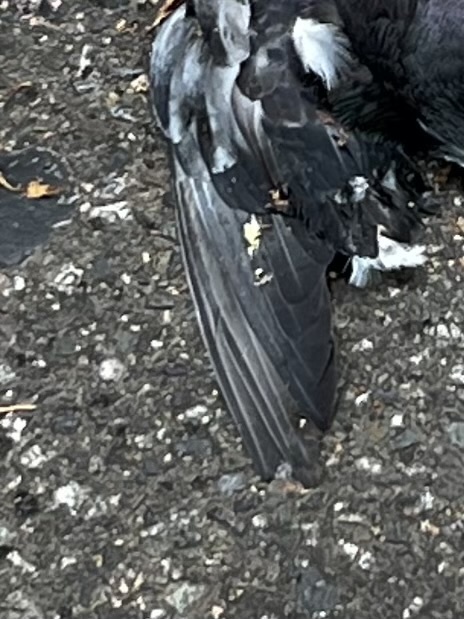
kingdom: Animalia
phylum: Chordata
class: Aves
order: Columbiformes
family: Columbidae
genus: Columba
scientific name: Columba livia
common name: Rock pigeon
